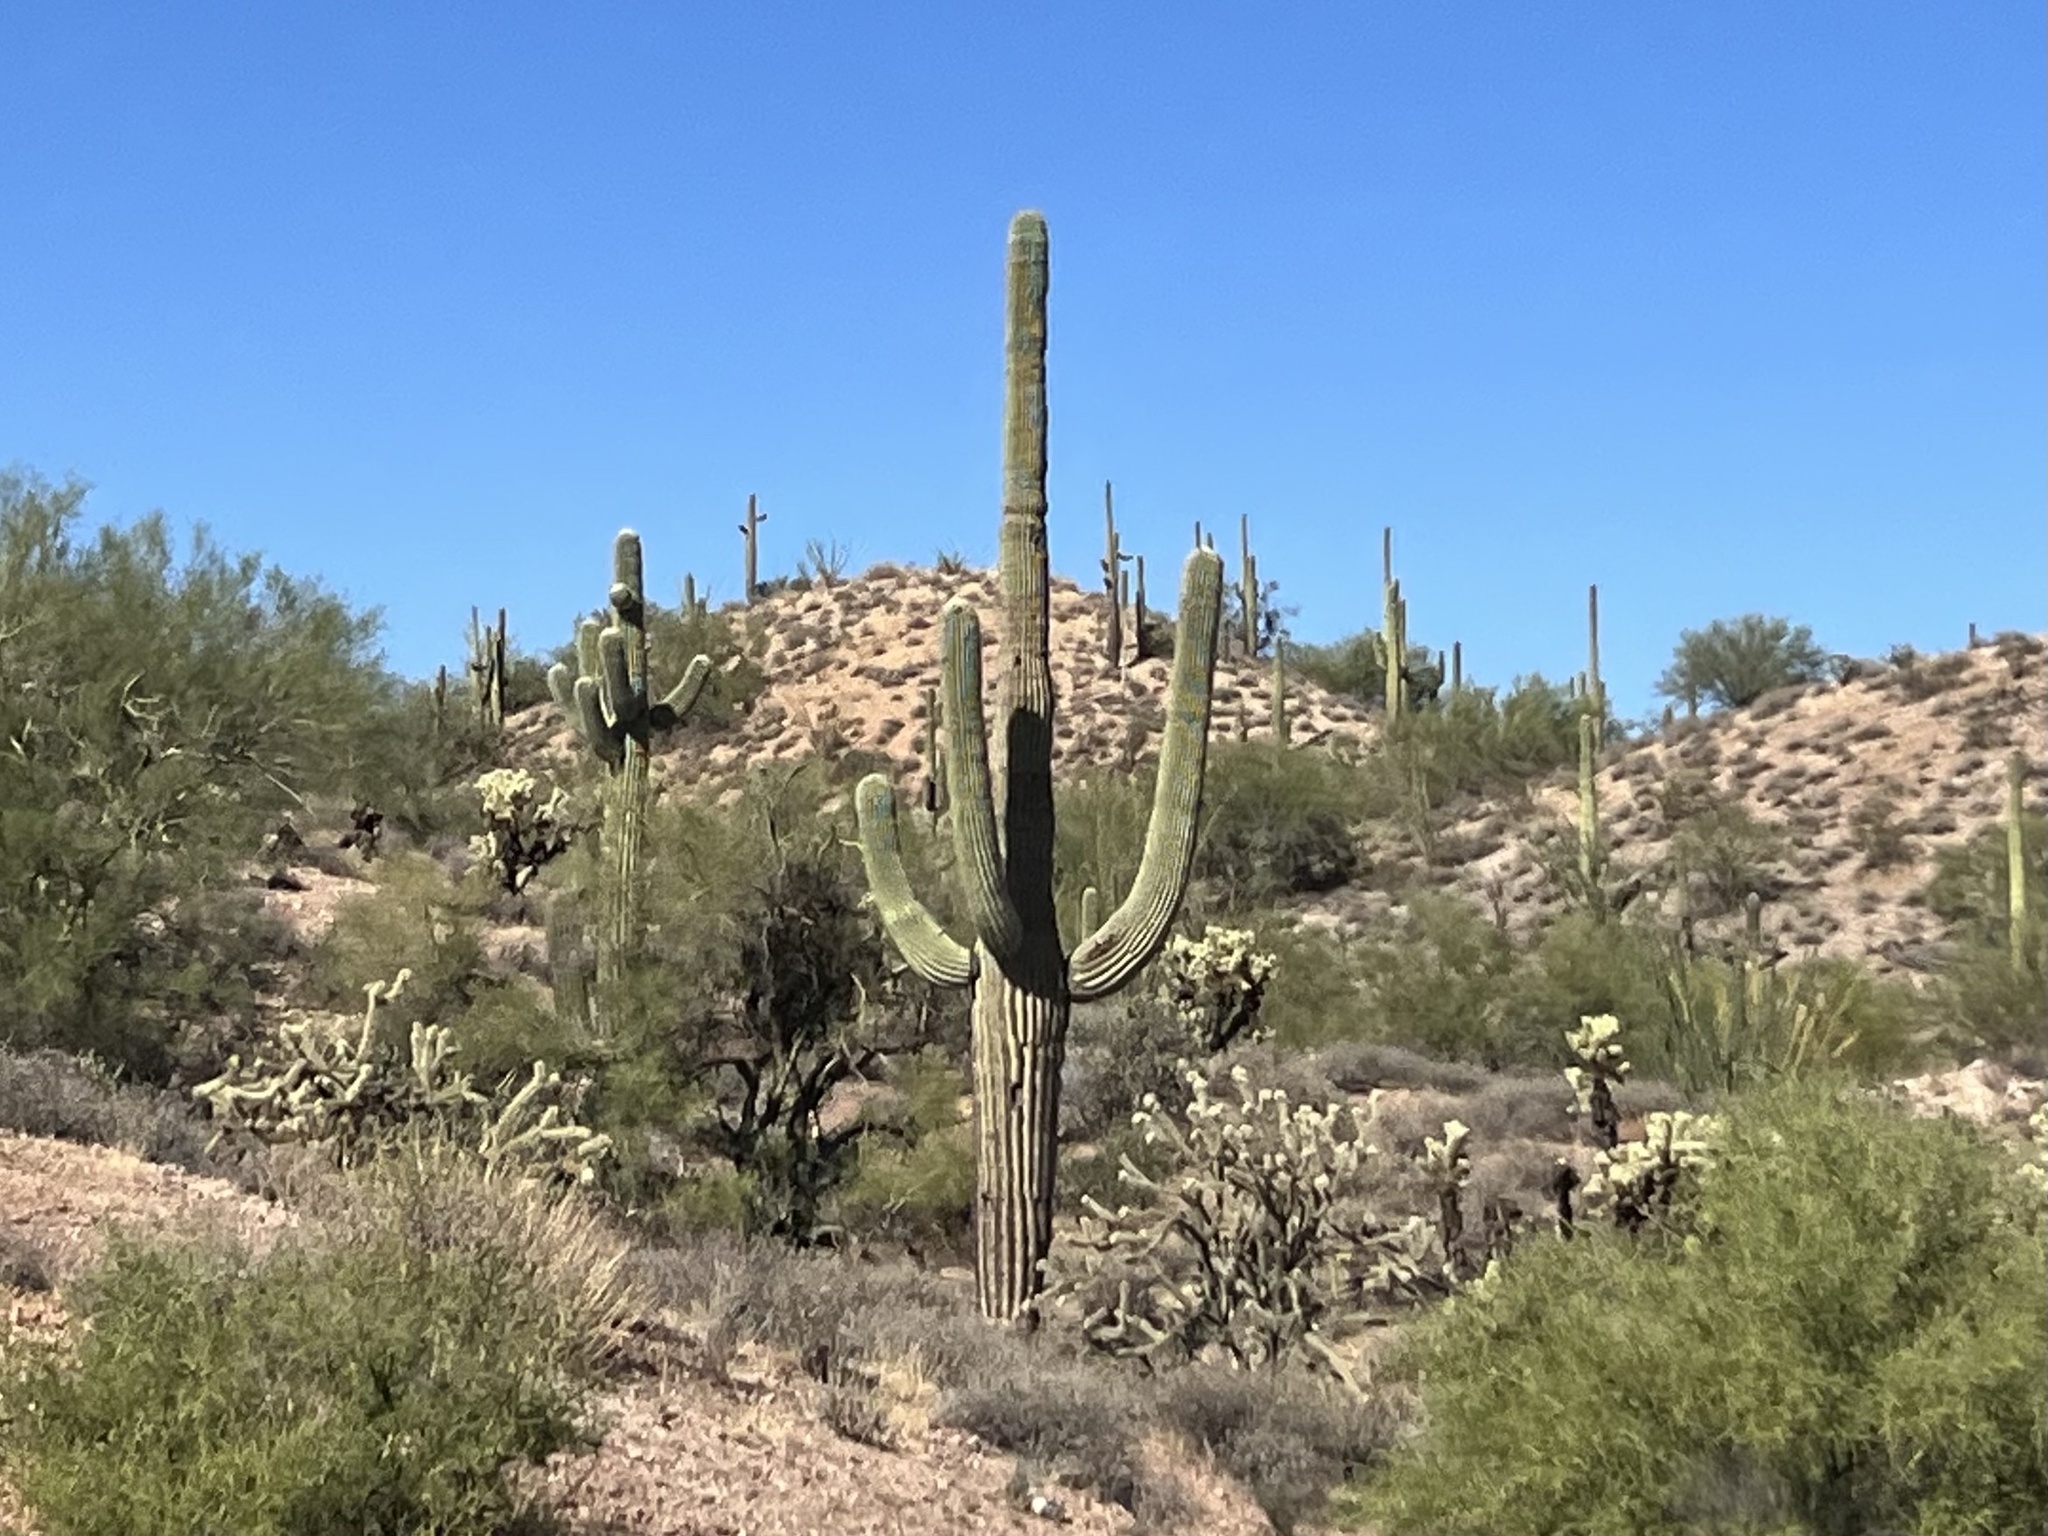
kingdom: Plantae
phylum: Tracheophyta
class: Magnoliopsida
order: Caryophyllales
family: Cactaceae
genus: Carnegiea
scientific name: Carnegiea gigantea
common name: Saguaro
